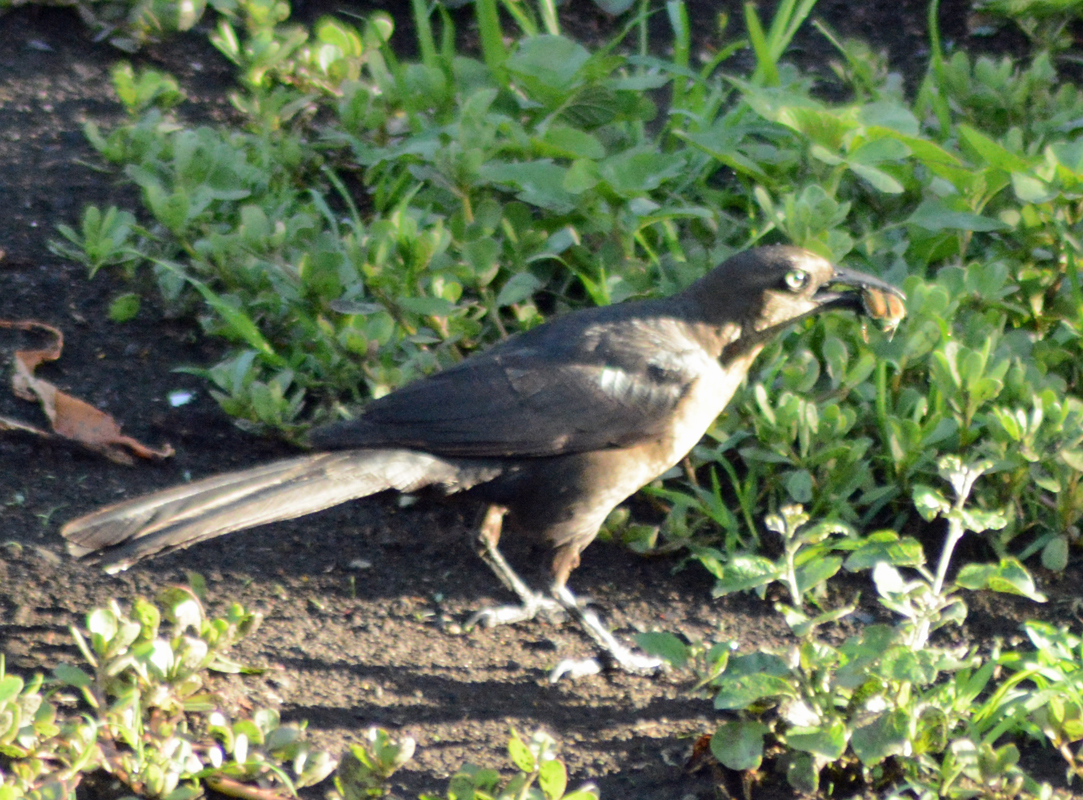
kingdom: Animalia
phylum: Chordata
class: Aves
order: Passeriformes
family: Icteridae
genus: Quiscalus
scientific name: Quiscalus mexicanus
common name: Great-tailed grackle
